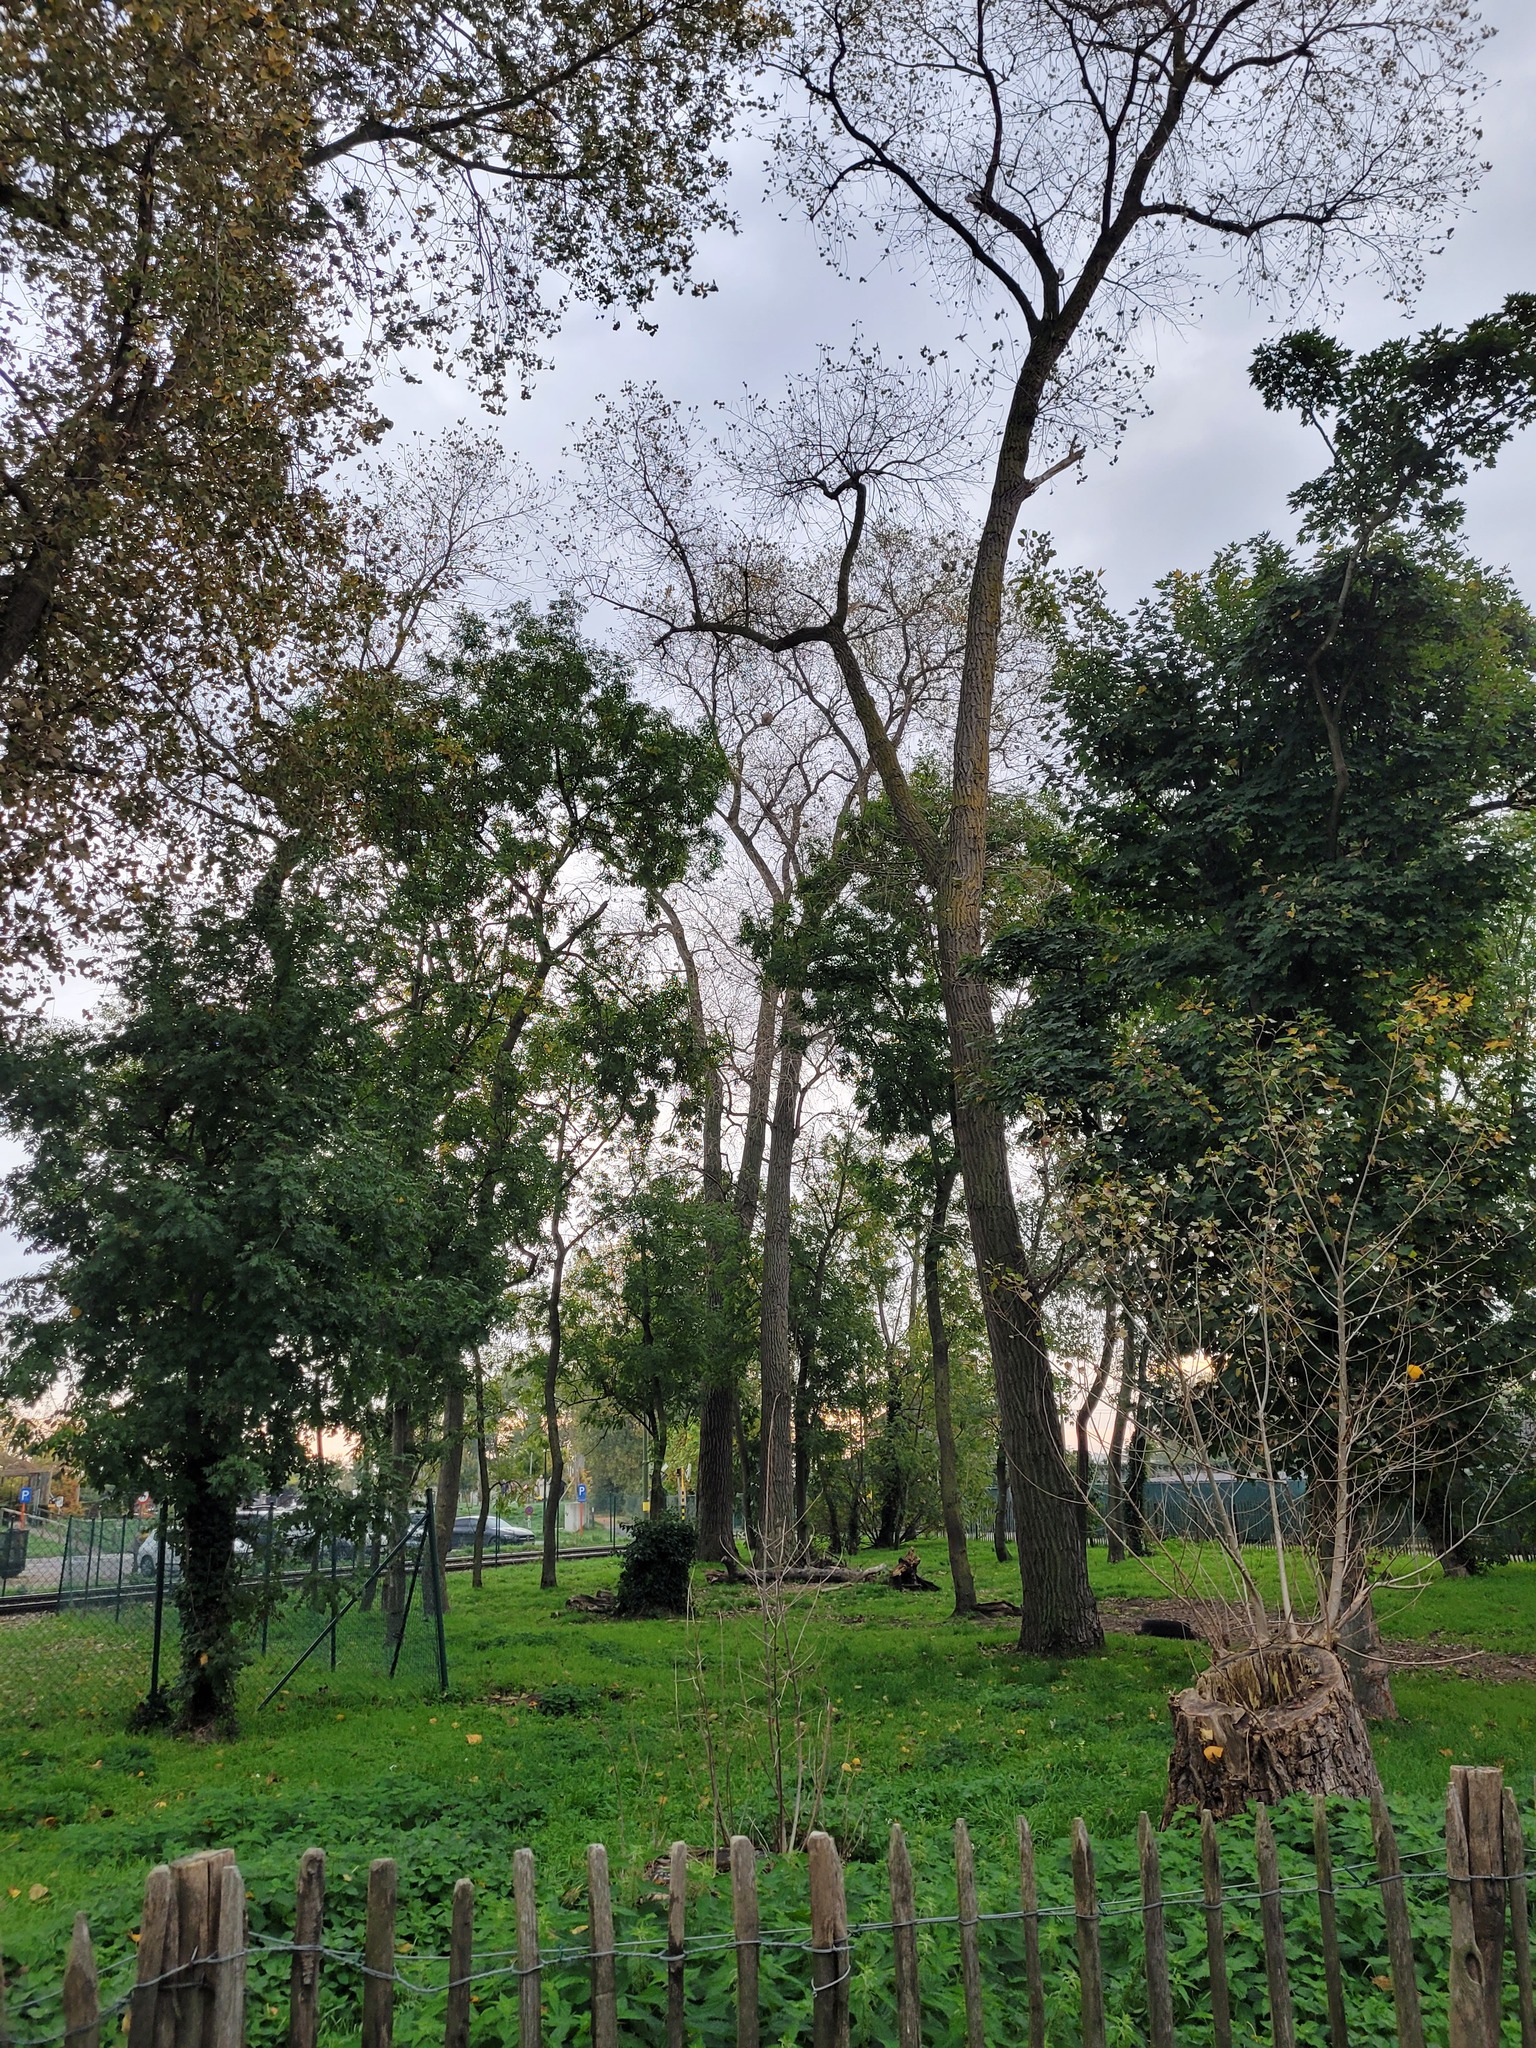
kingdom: Animalia
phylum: Arthropoda
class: Insecta
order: Hymenoptera
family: Vespidae
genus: Vespa
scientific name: Vespa velutina
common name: Asian hornet
